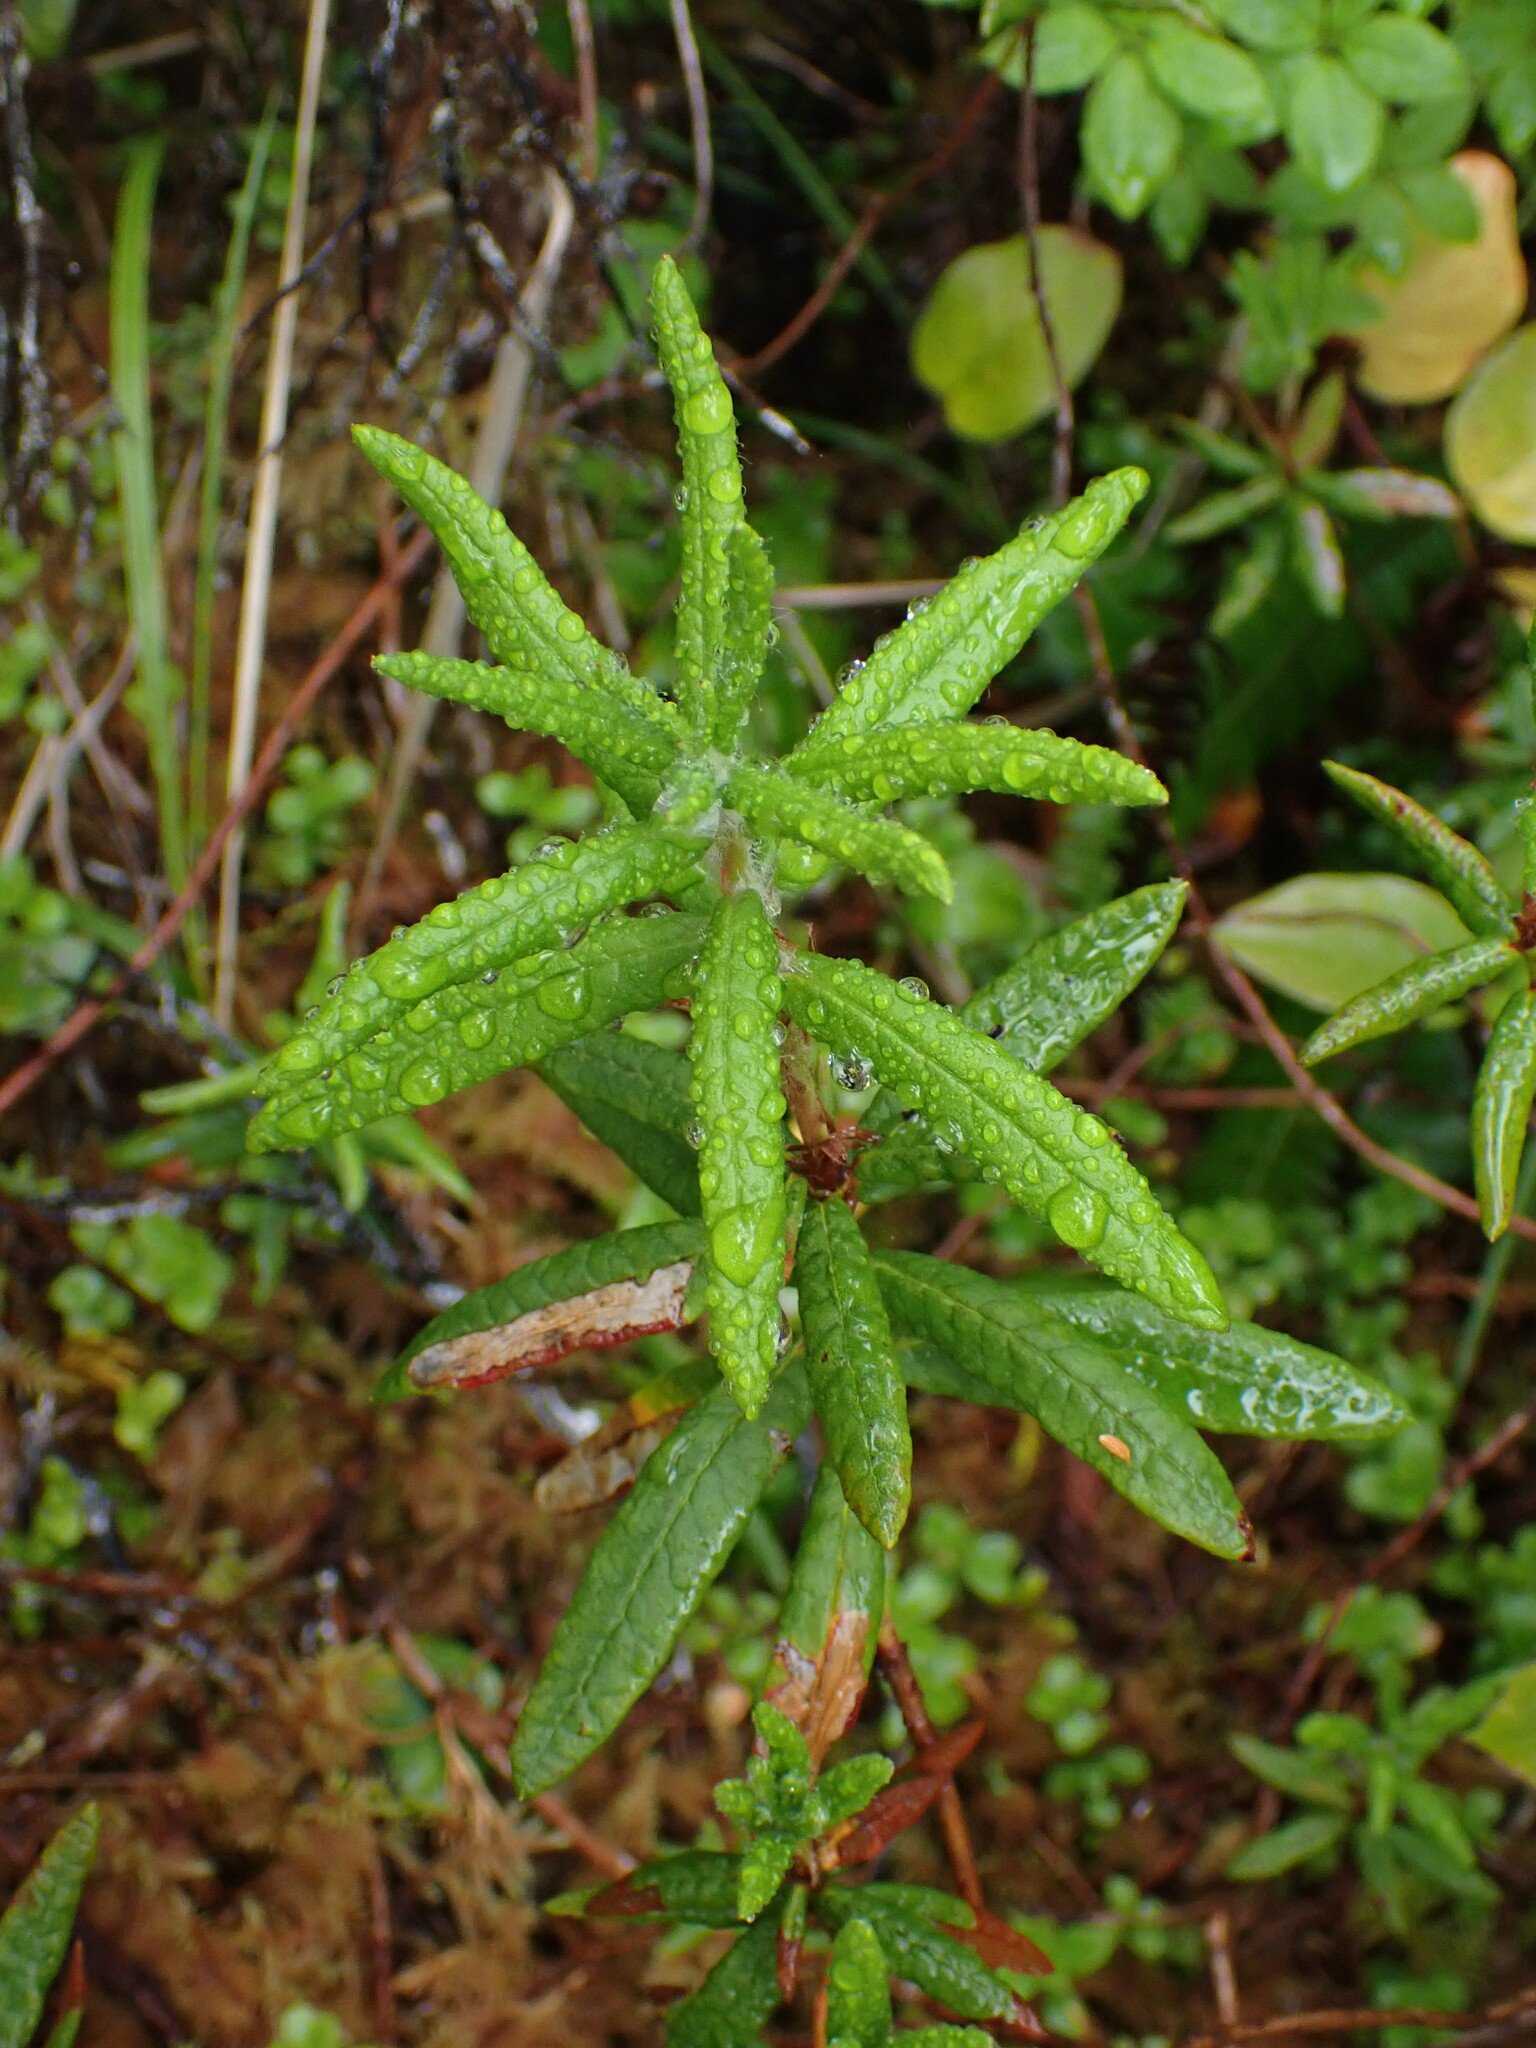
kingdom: Plantae
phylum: Tracheophyta
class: Magnoliopsida
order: Ericales
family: Ericaceae
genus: Rhododendron
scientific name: Rhododendron groenlandicum
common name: Bog labrador tea
